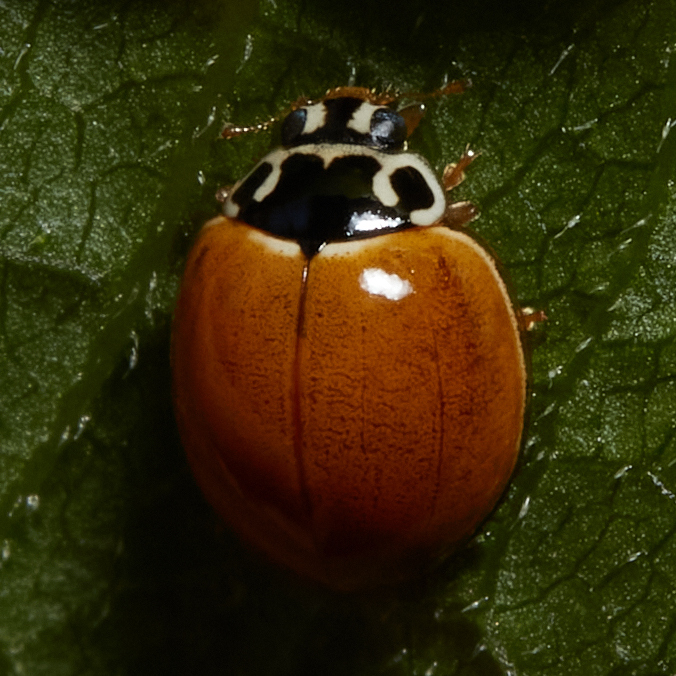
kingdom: Animalia
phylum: Arthropoda
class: Insecta
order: Coleoptera
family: Coccinellidae
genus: Cycloneda
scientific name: Cycloneda munda
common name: Polished lady beetle
